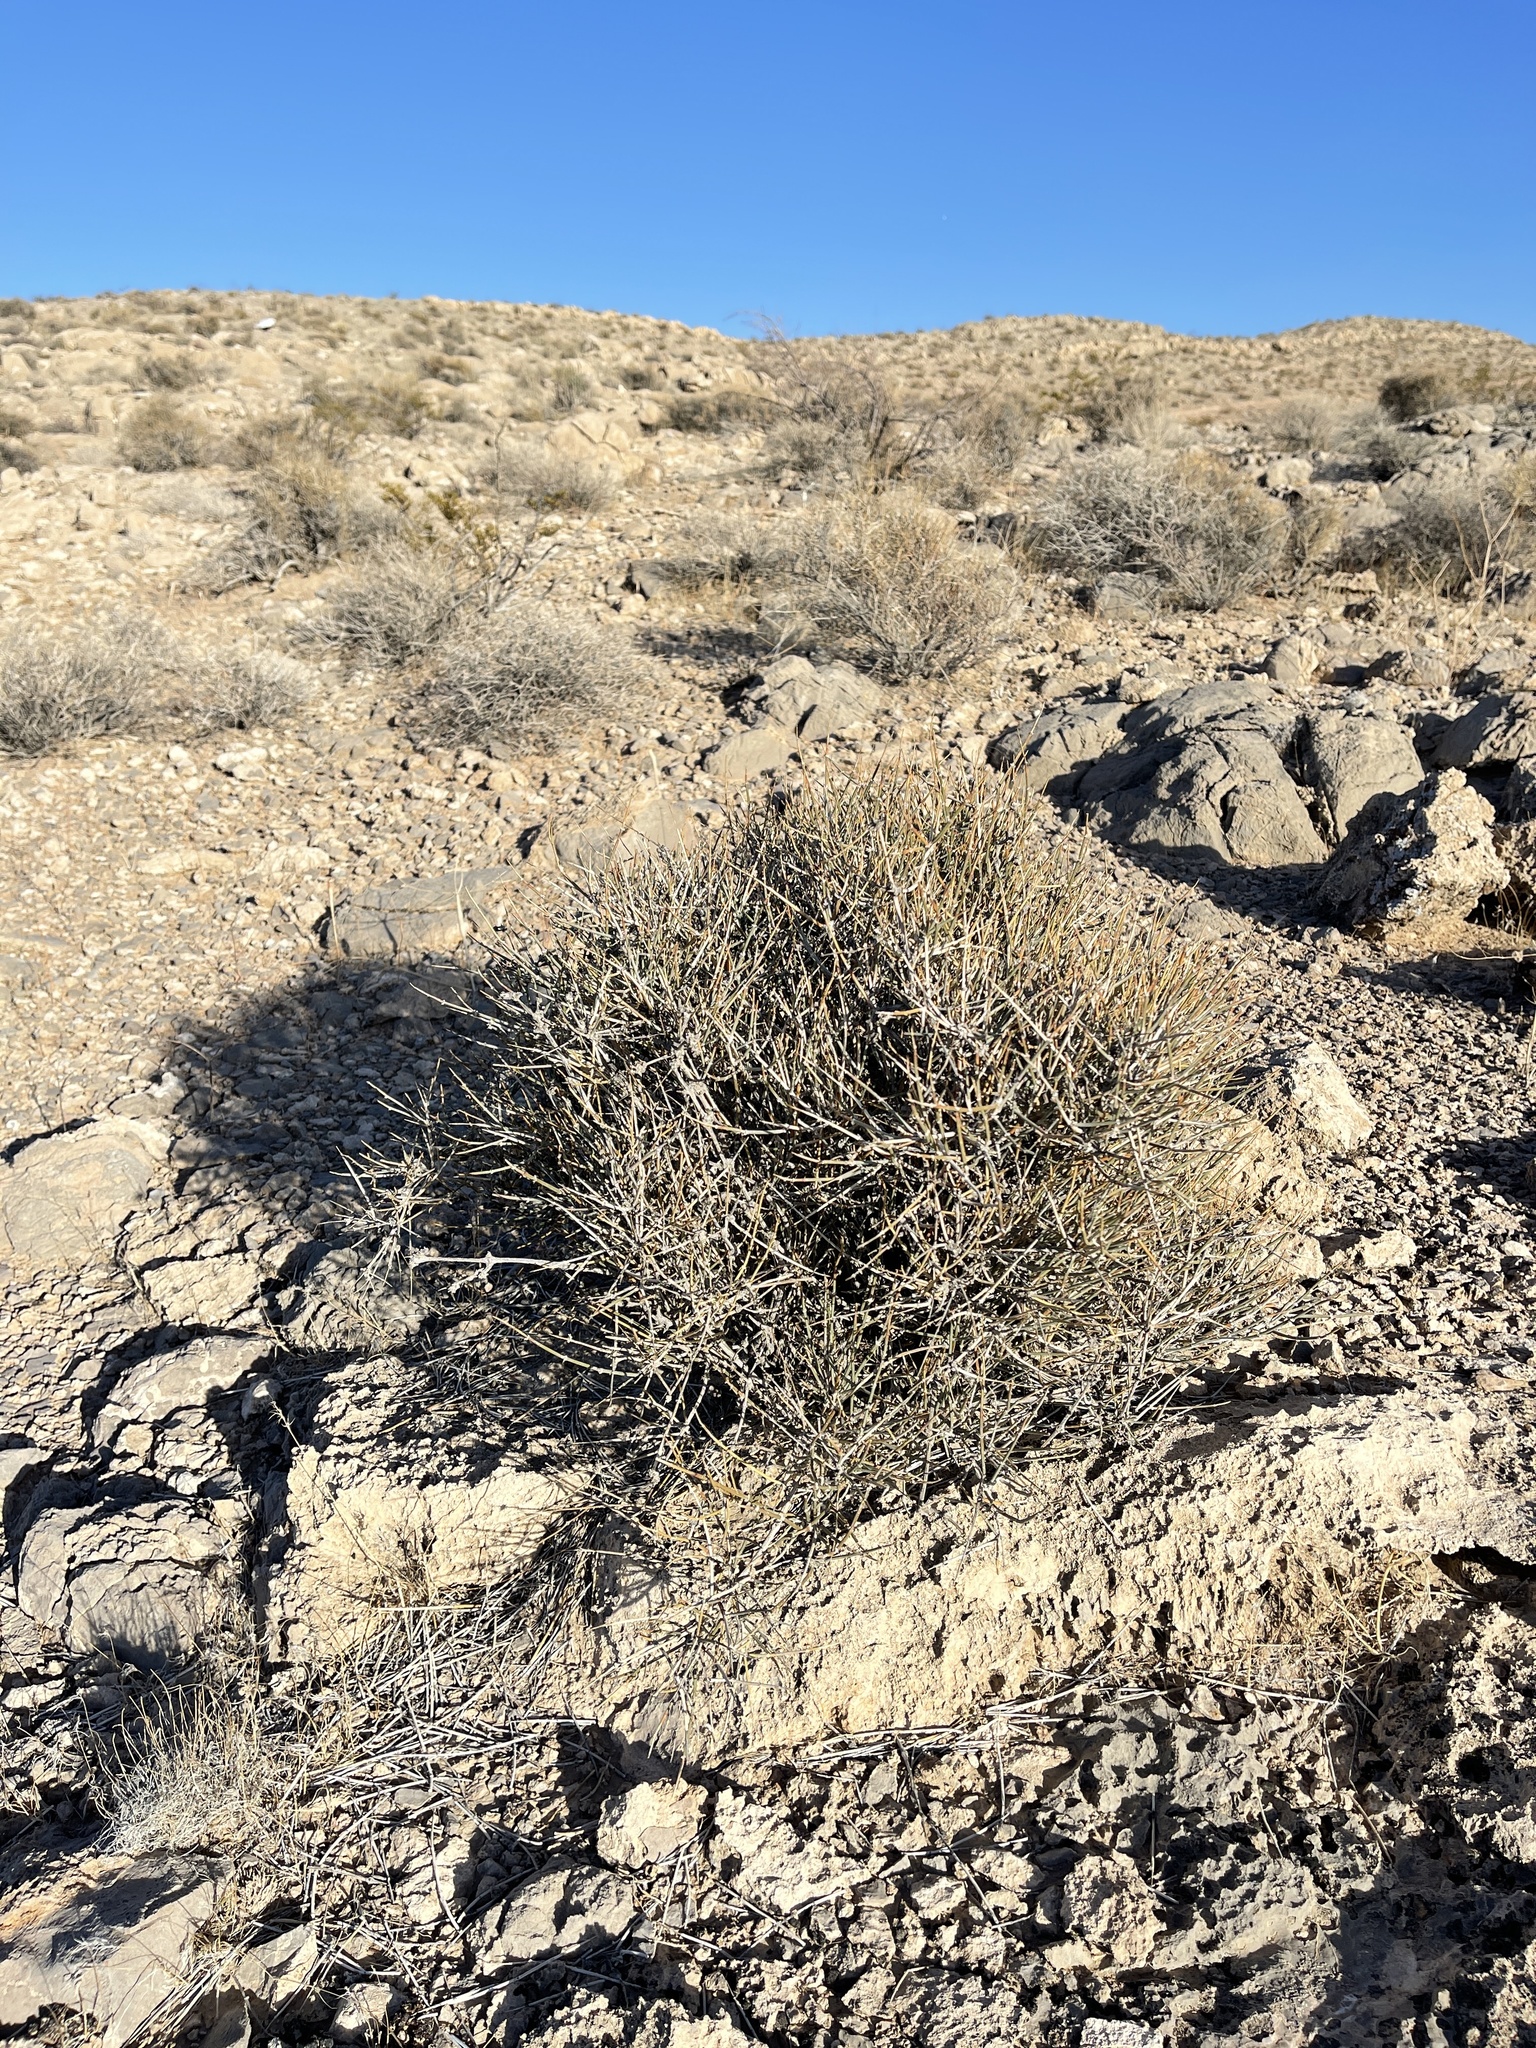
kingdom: Plantae
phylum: Tracheophyta
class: Gnetopsida
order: Ephedrales
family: Ephedraceae
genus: Ephedra
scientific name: Ephedra nevadensis
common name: Gray ephedra
